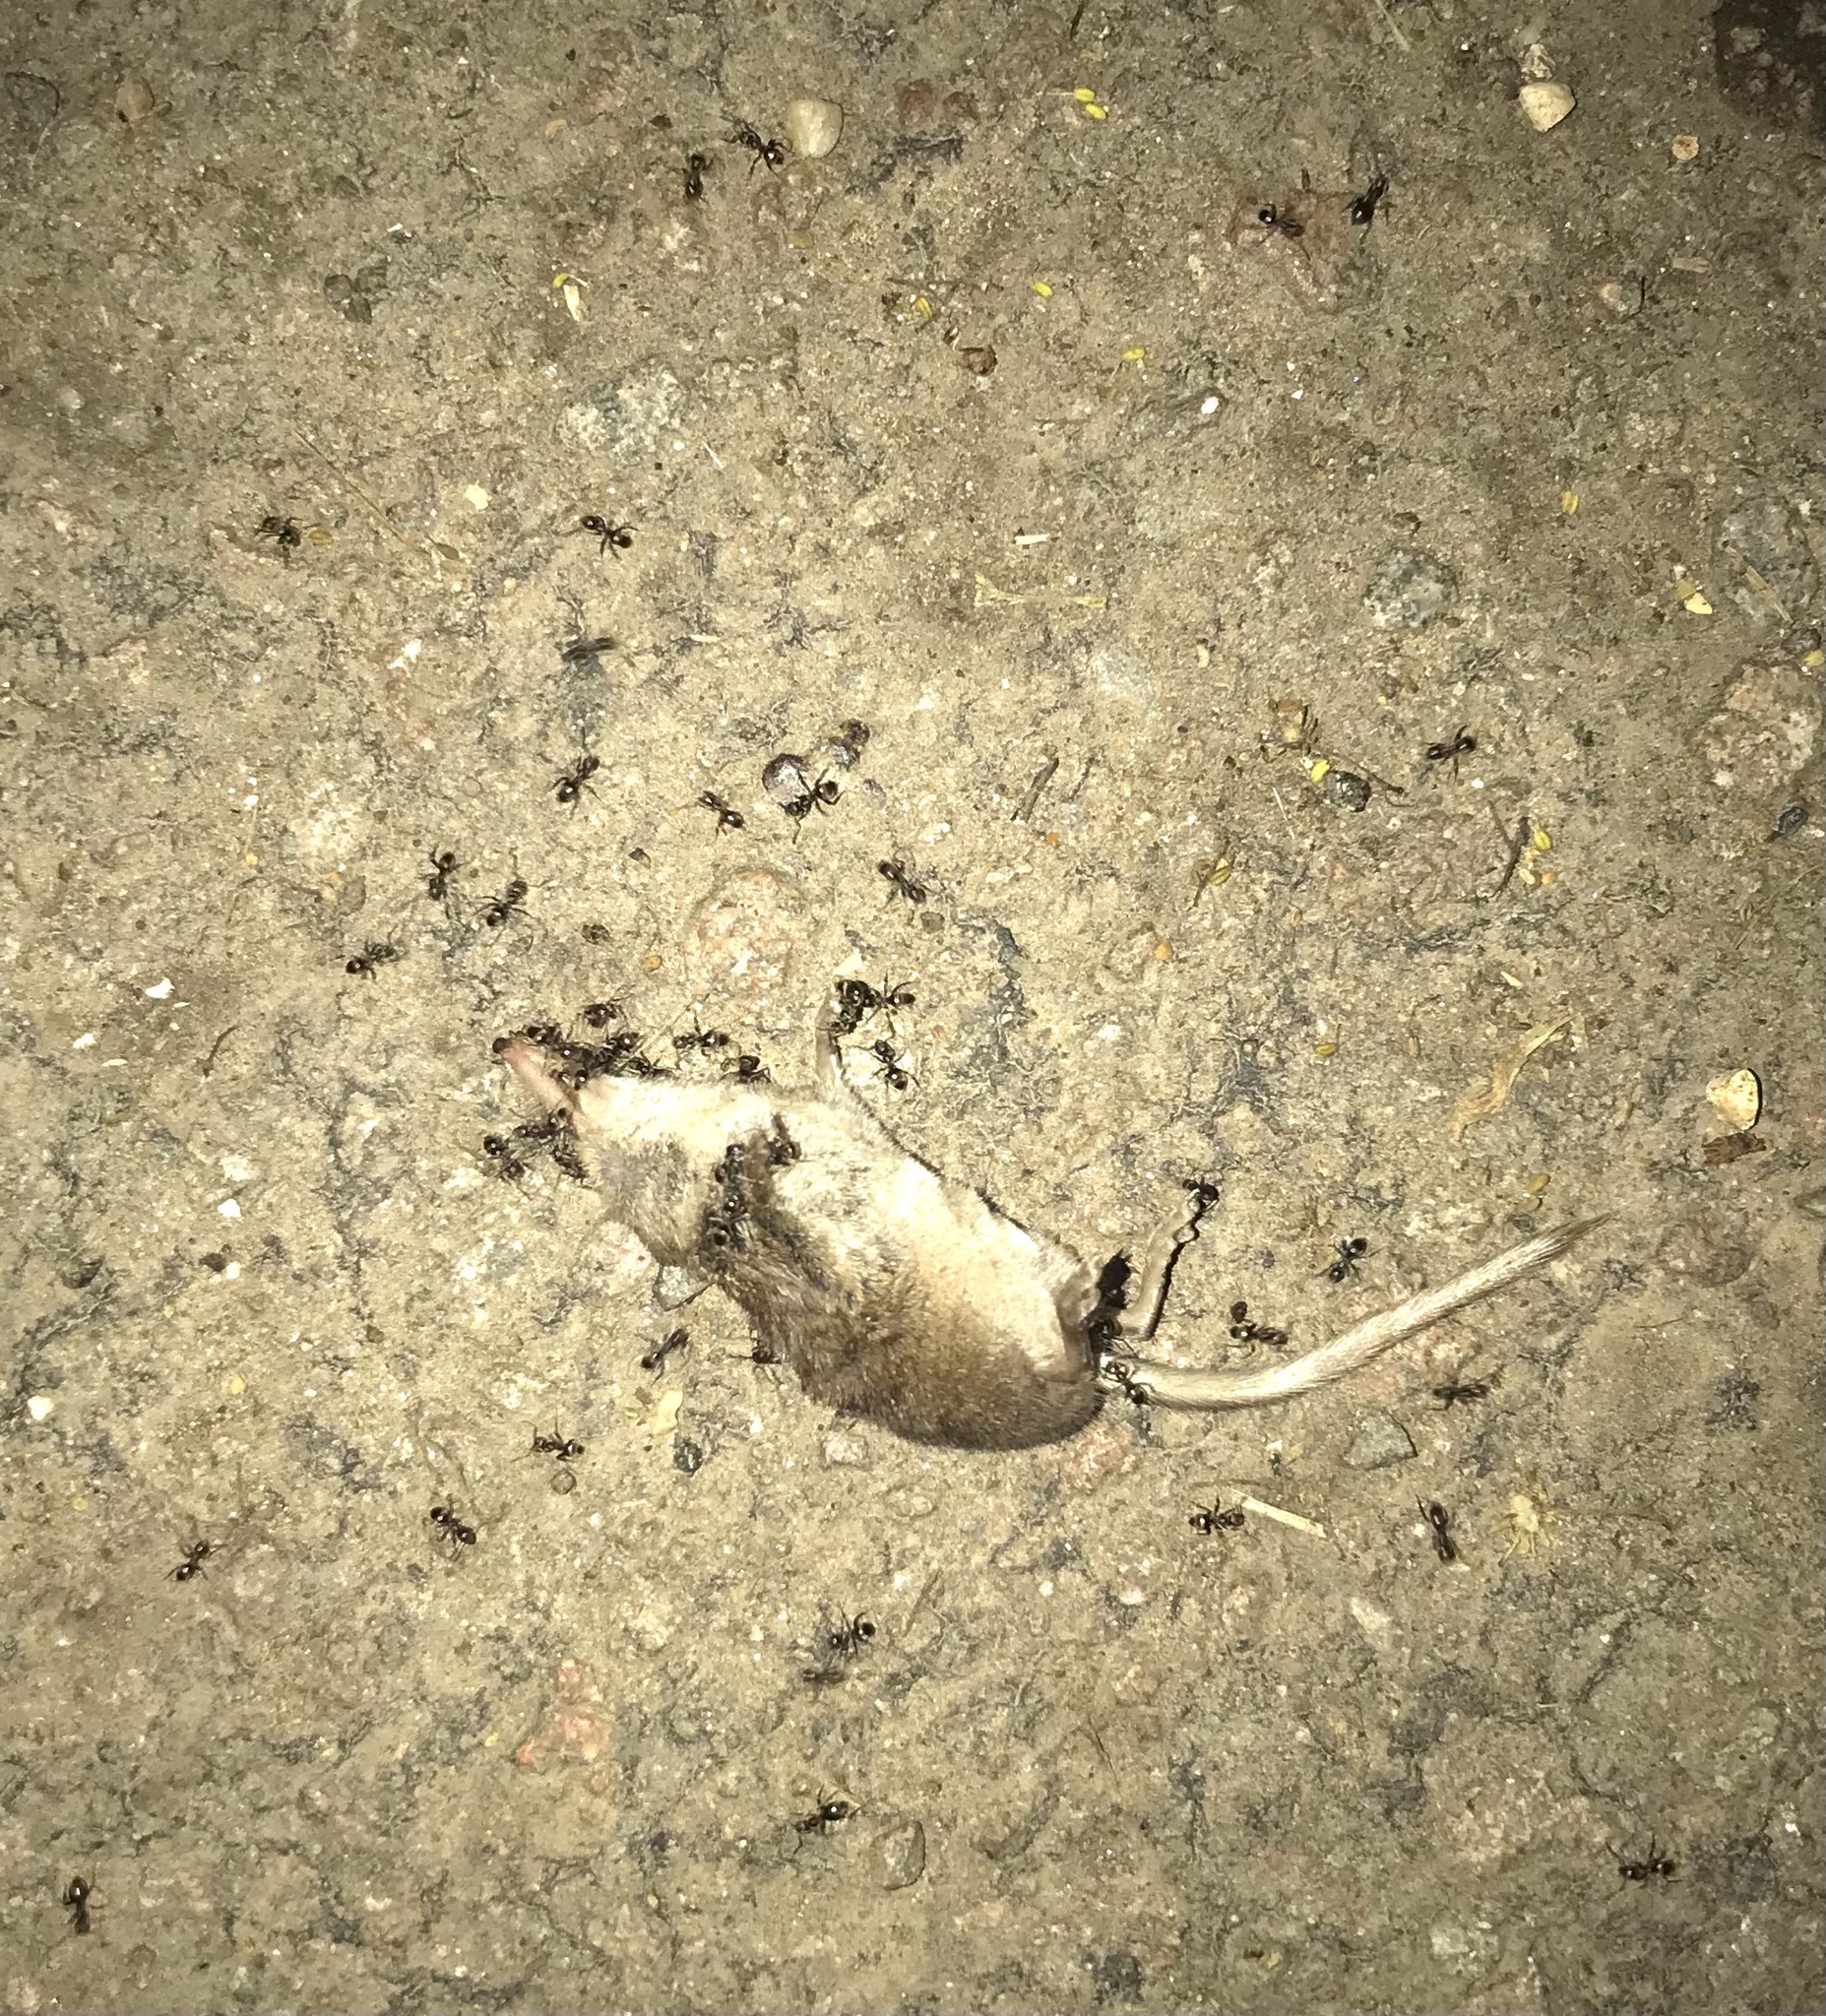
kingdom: Animalia
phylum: Chordata
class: Mammalia
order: Soricomorpha
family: Soricidae
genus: Sorex
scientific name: Sorex araneus
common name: Common shrew
